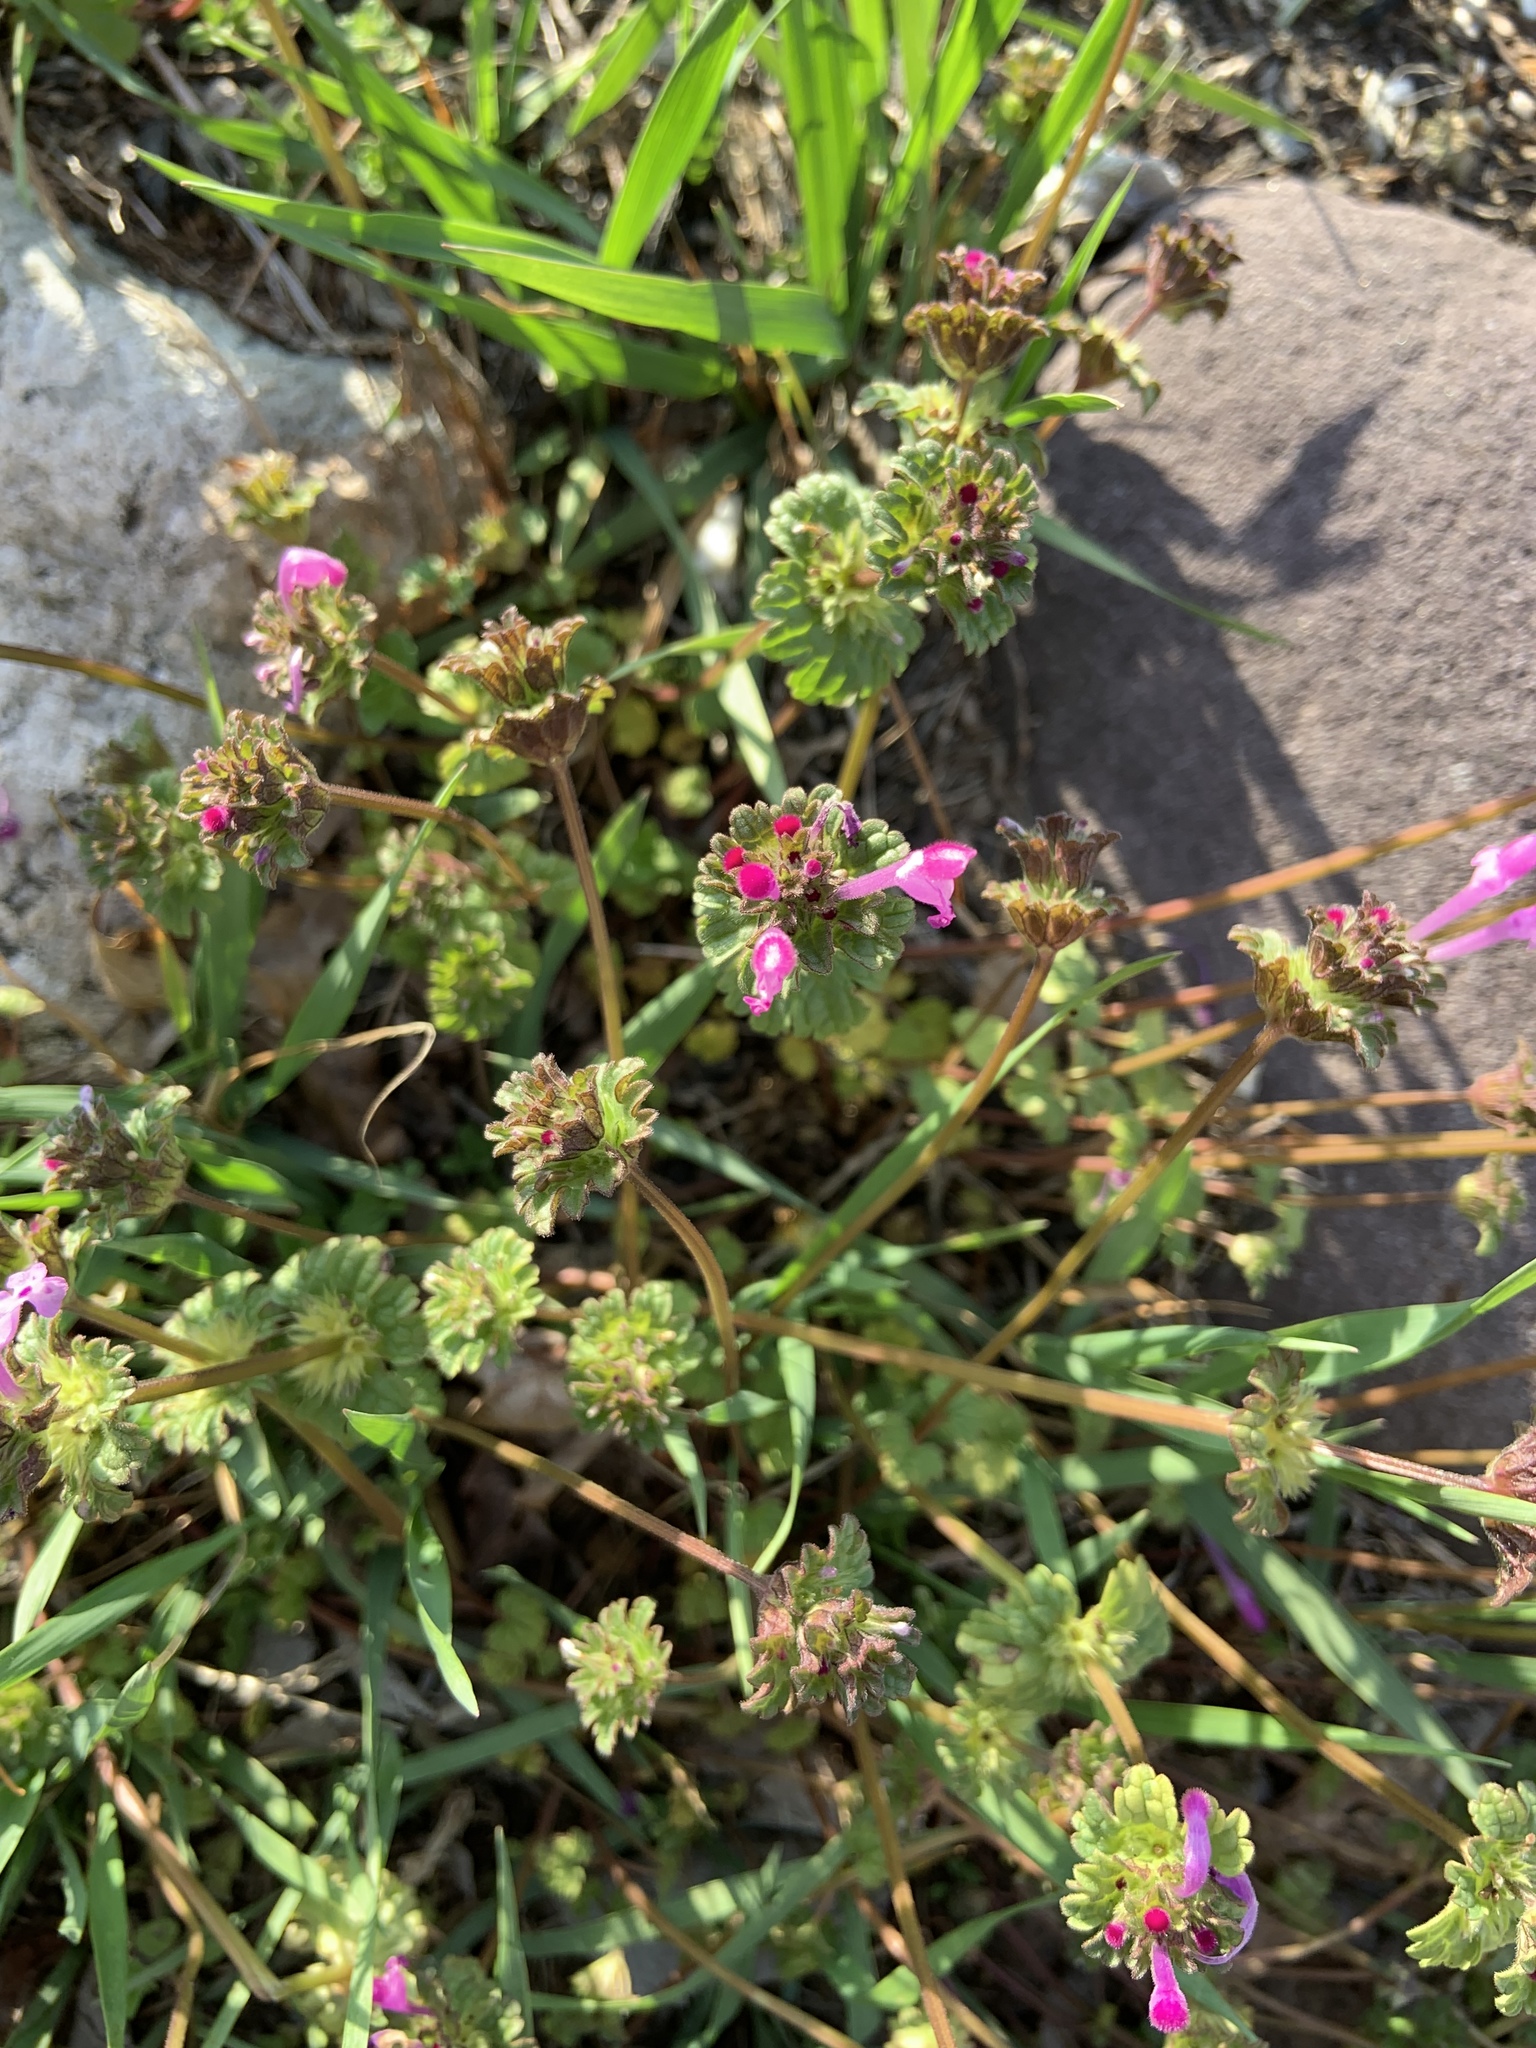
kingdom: Plantae
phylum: Tracheophyta
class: Magnoliopsida
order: Lamiales
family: Lamiaceae
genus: Lamium
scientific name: Lamium amplexicaule
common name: Henbit dead-nettle
